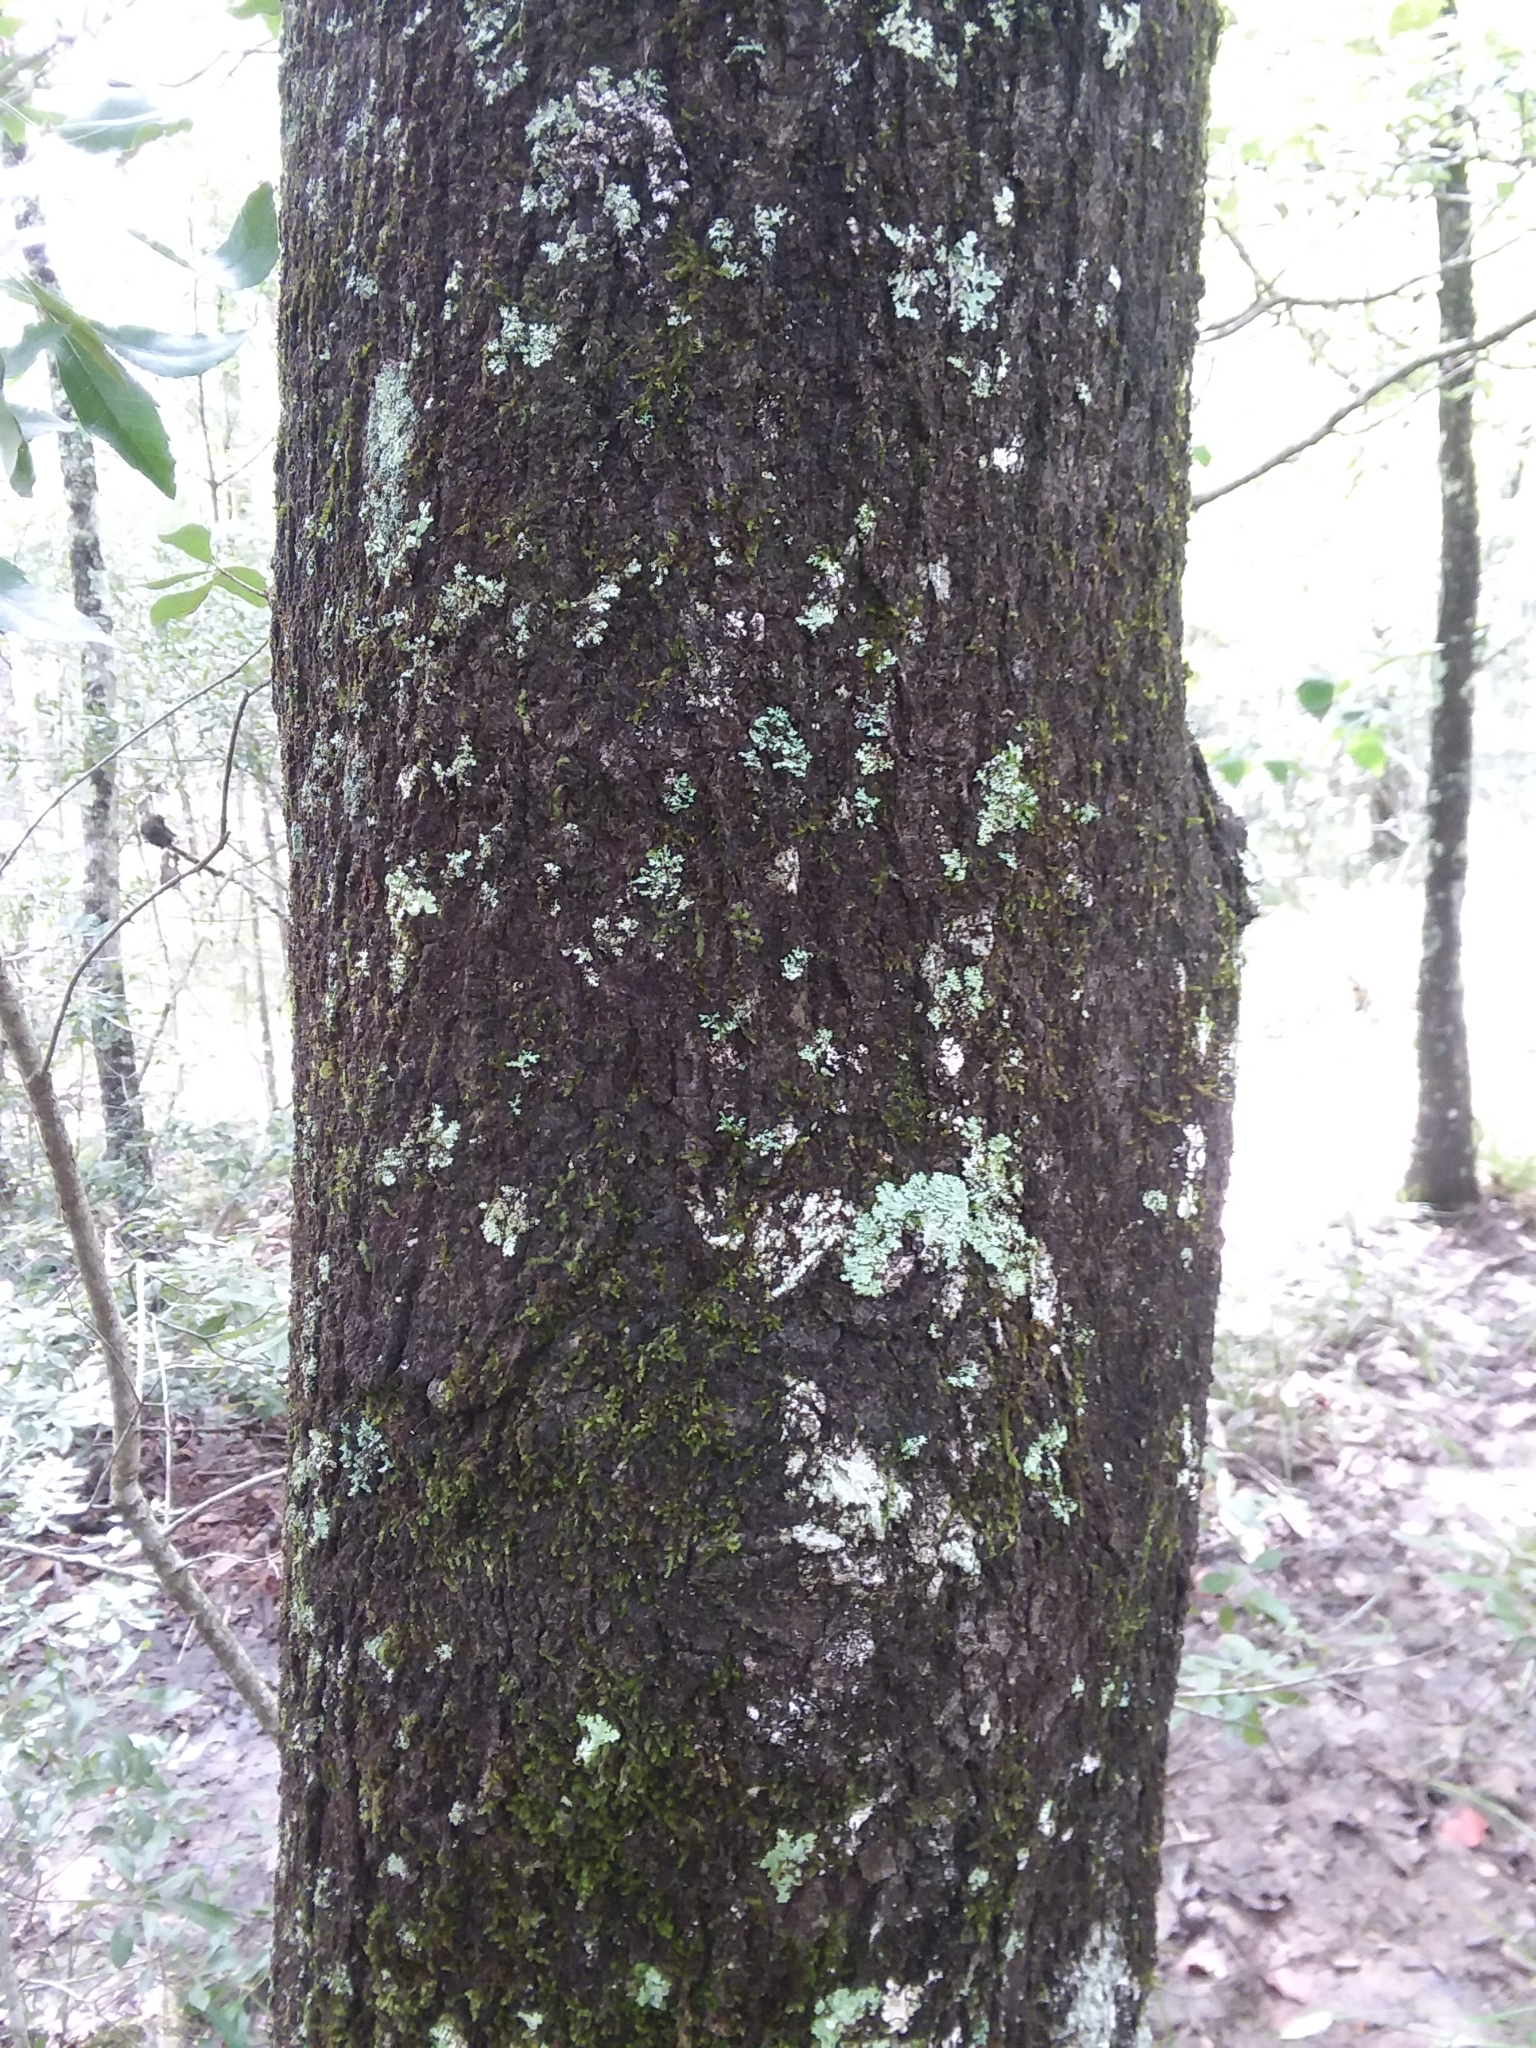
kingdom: Plantae
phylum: Tracheophyta
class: Magnoliopsida
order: Sapindales
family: Sapindaceae
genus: Acer
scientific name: Acer rubrum
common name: Red maple
